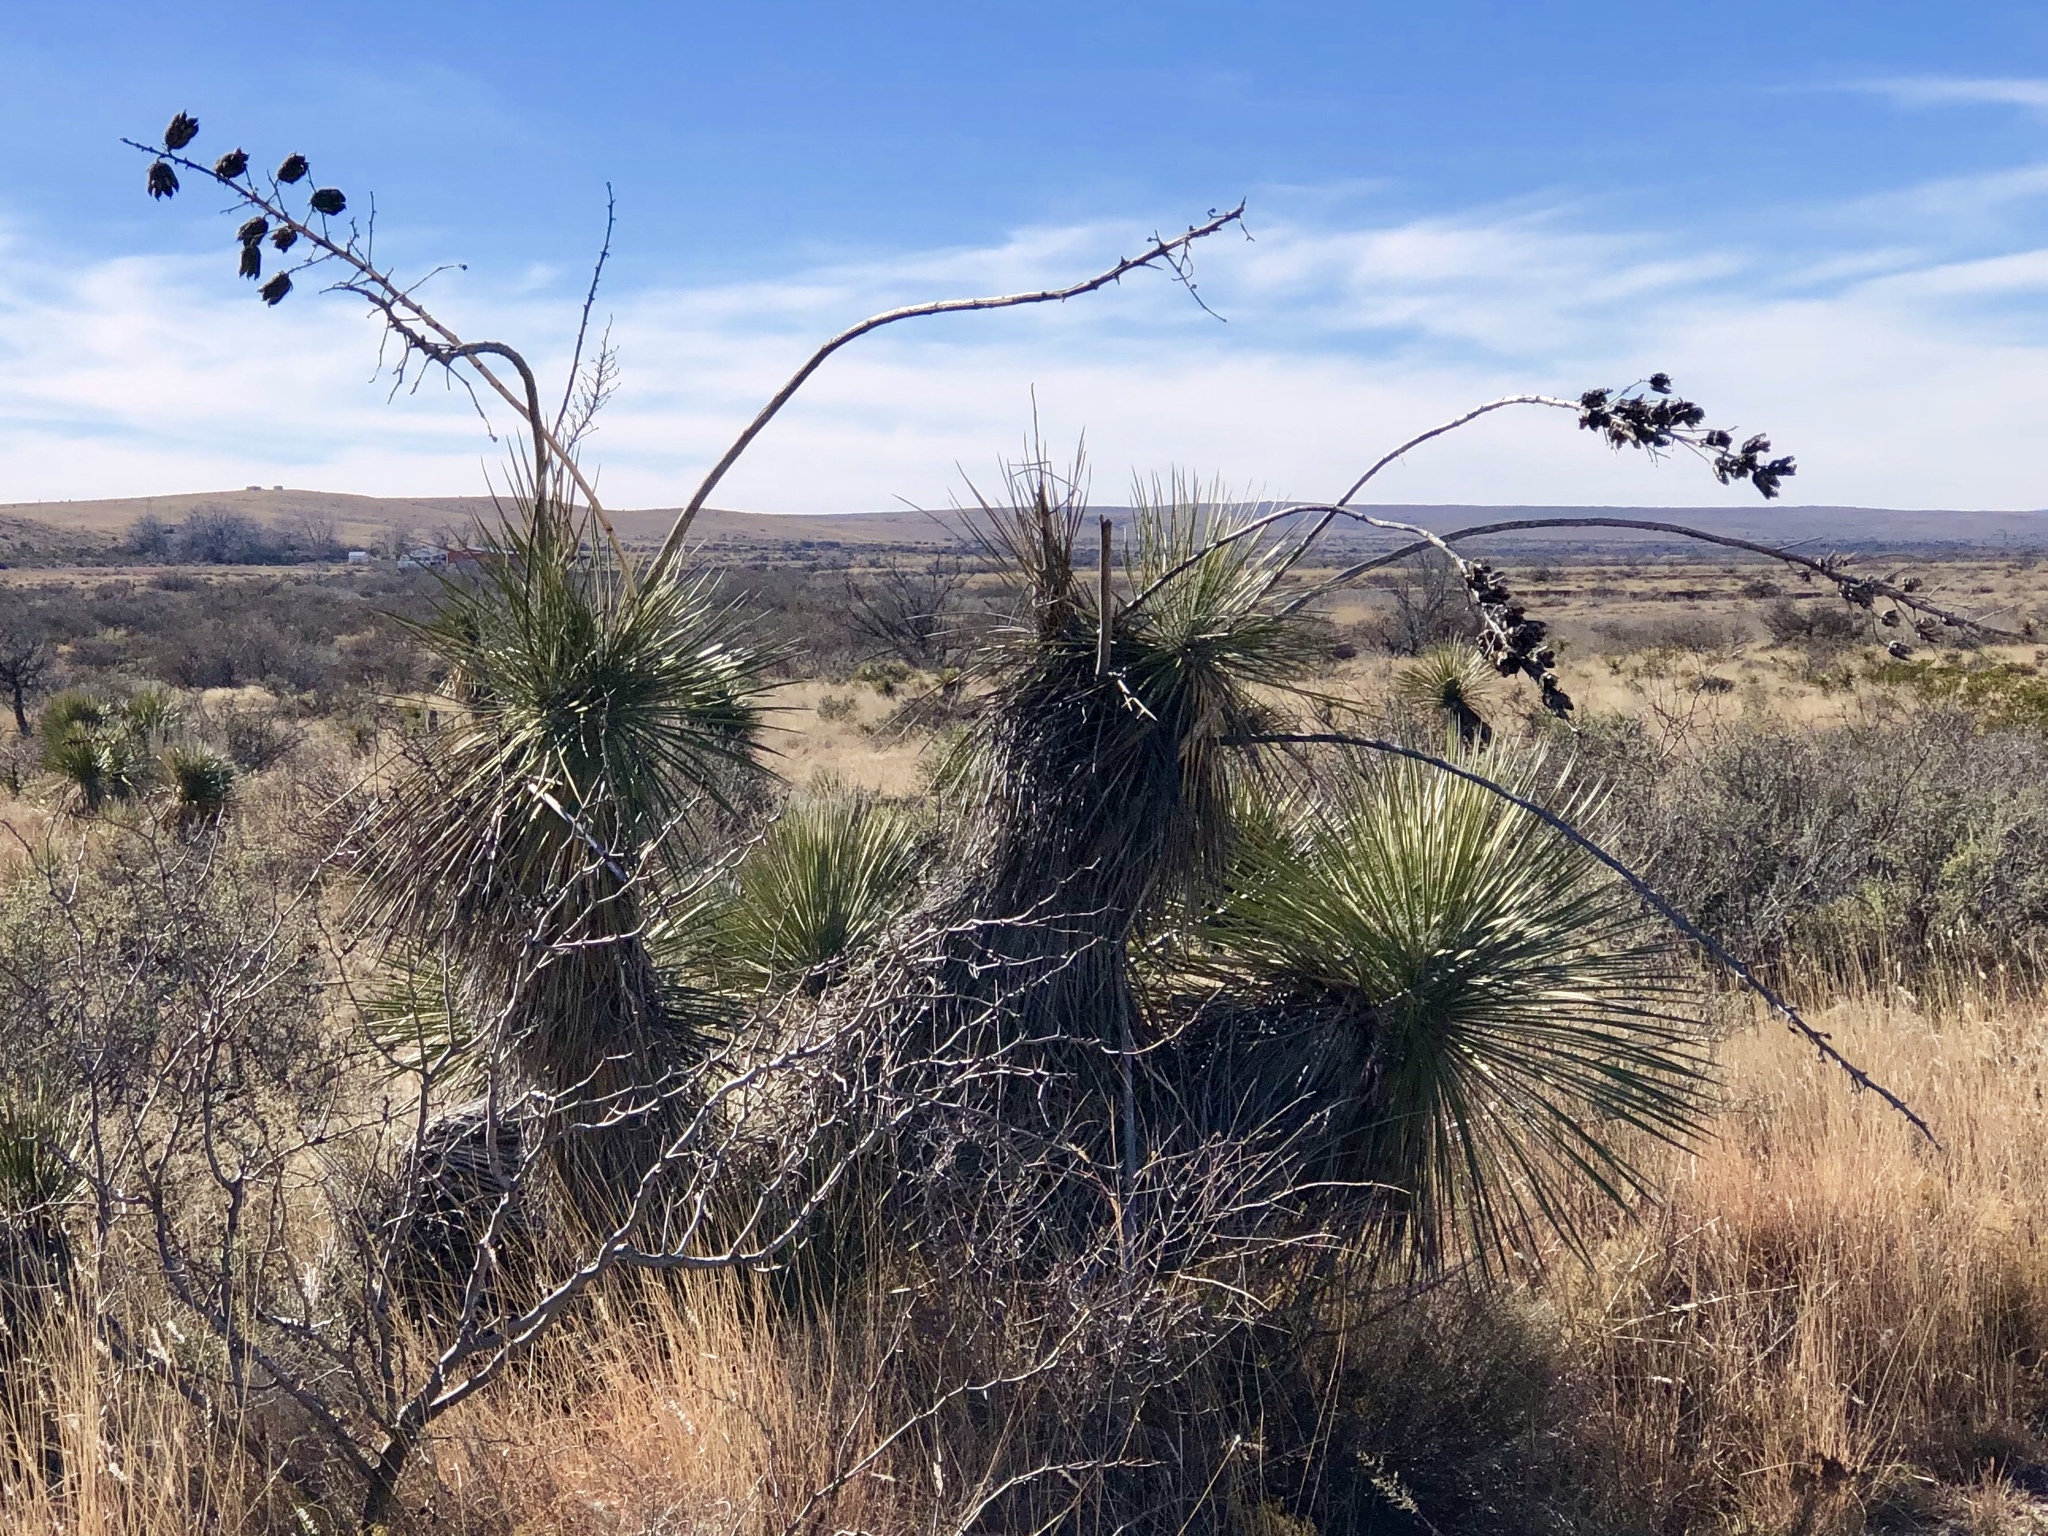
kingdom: Plantae
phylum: Tracheophyta
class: Liliopsida
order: Asparagales
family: Asparagaceae
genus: Yucca
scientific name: Yucca elata
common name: Palmella
